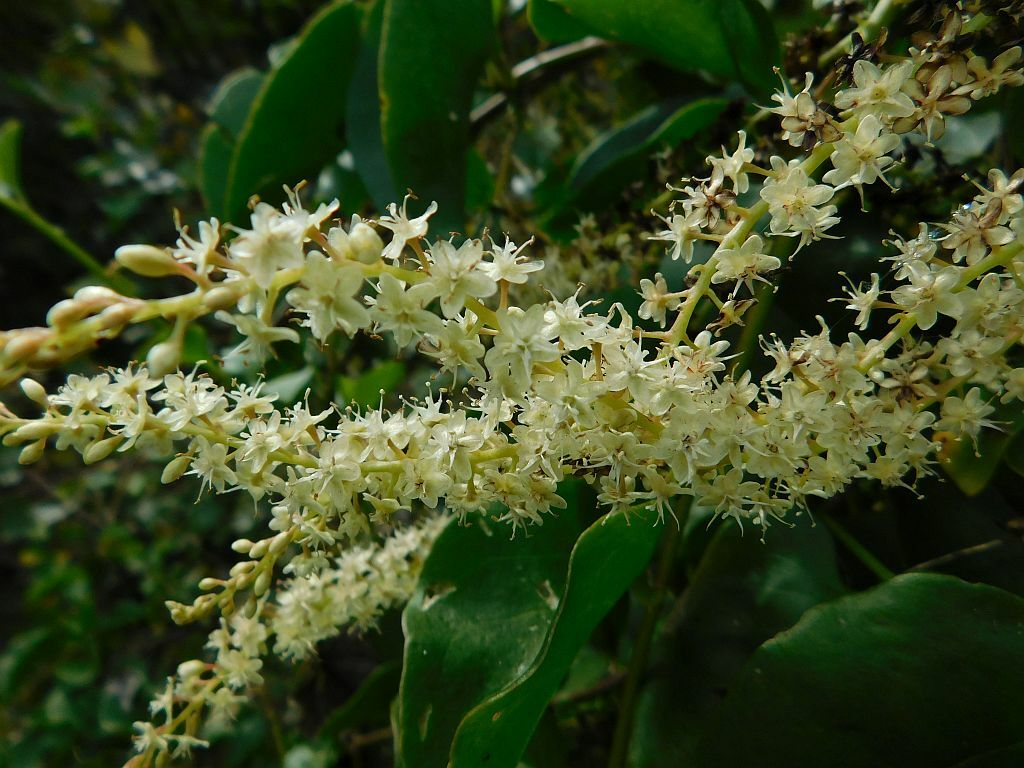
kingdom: Plantae
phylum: Tracheophyta
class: Magnoliopsida
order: Caryophyllales
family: Basellaceae
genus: Anredera
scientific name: Anredera cordifolia
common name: Heartleaf madeiravine
